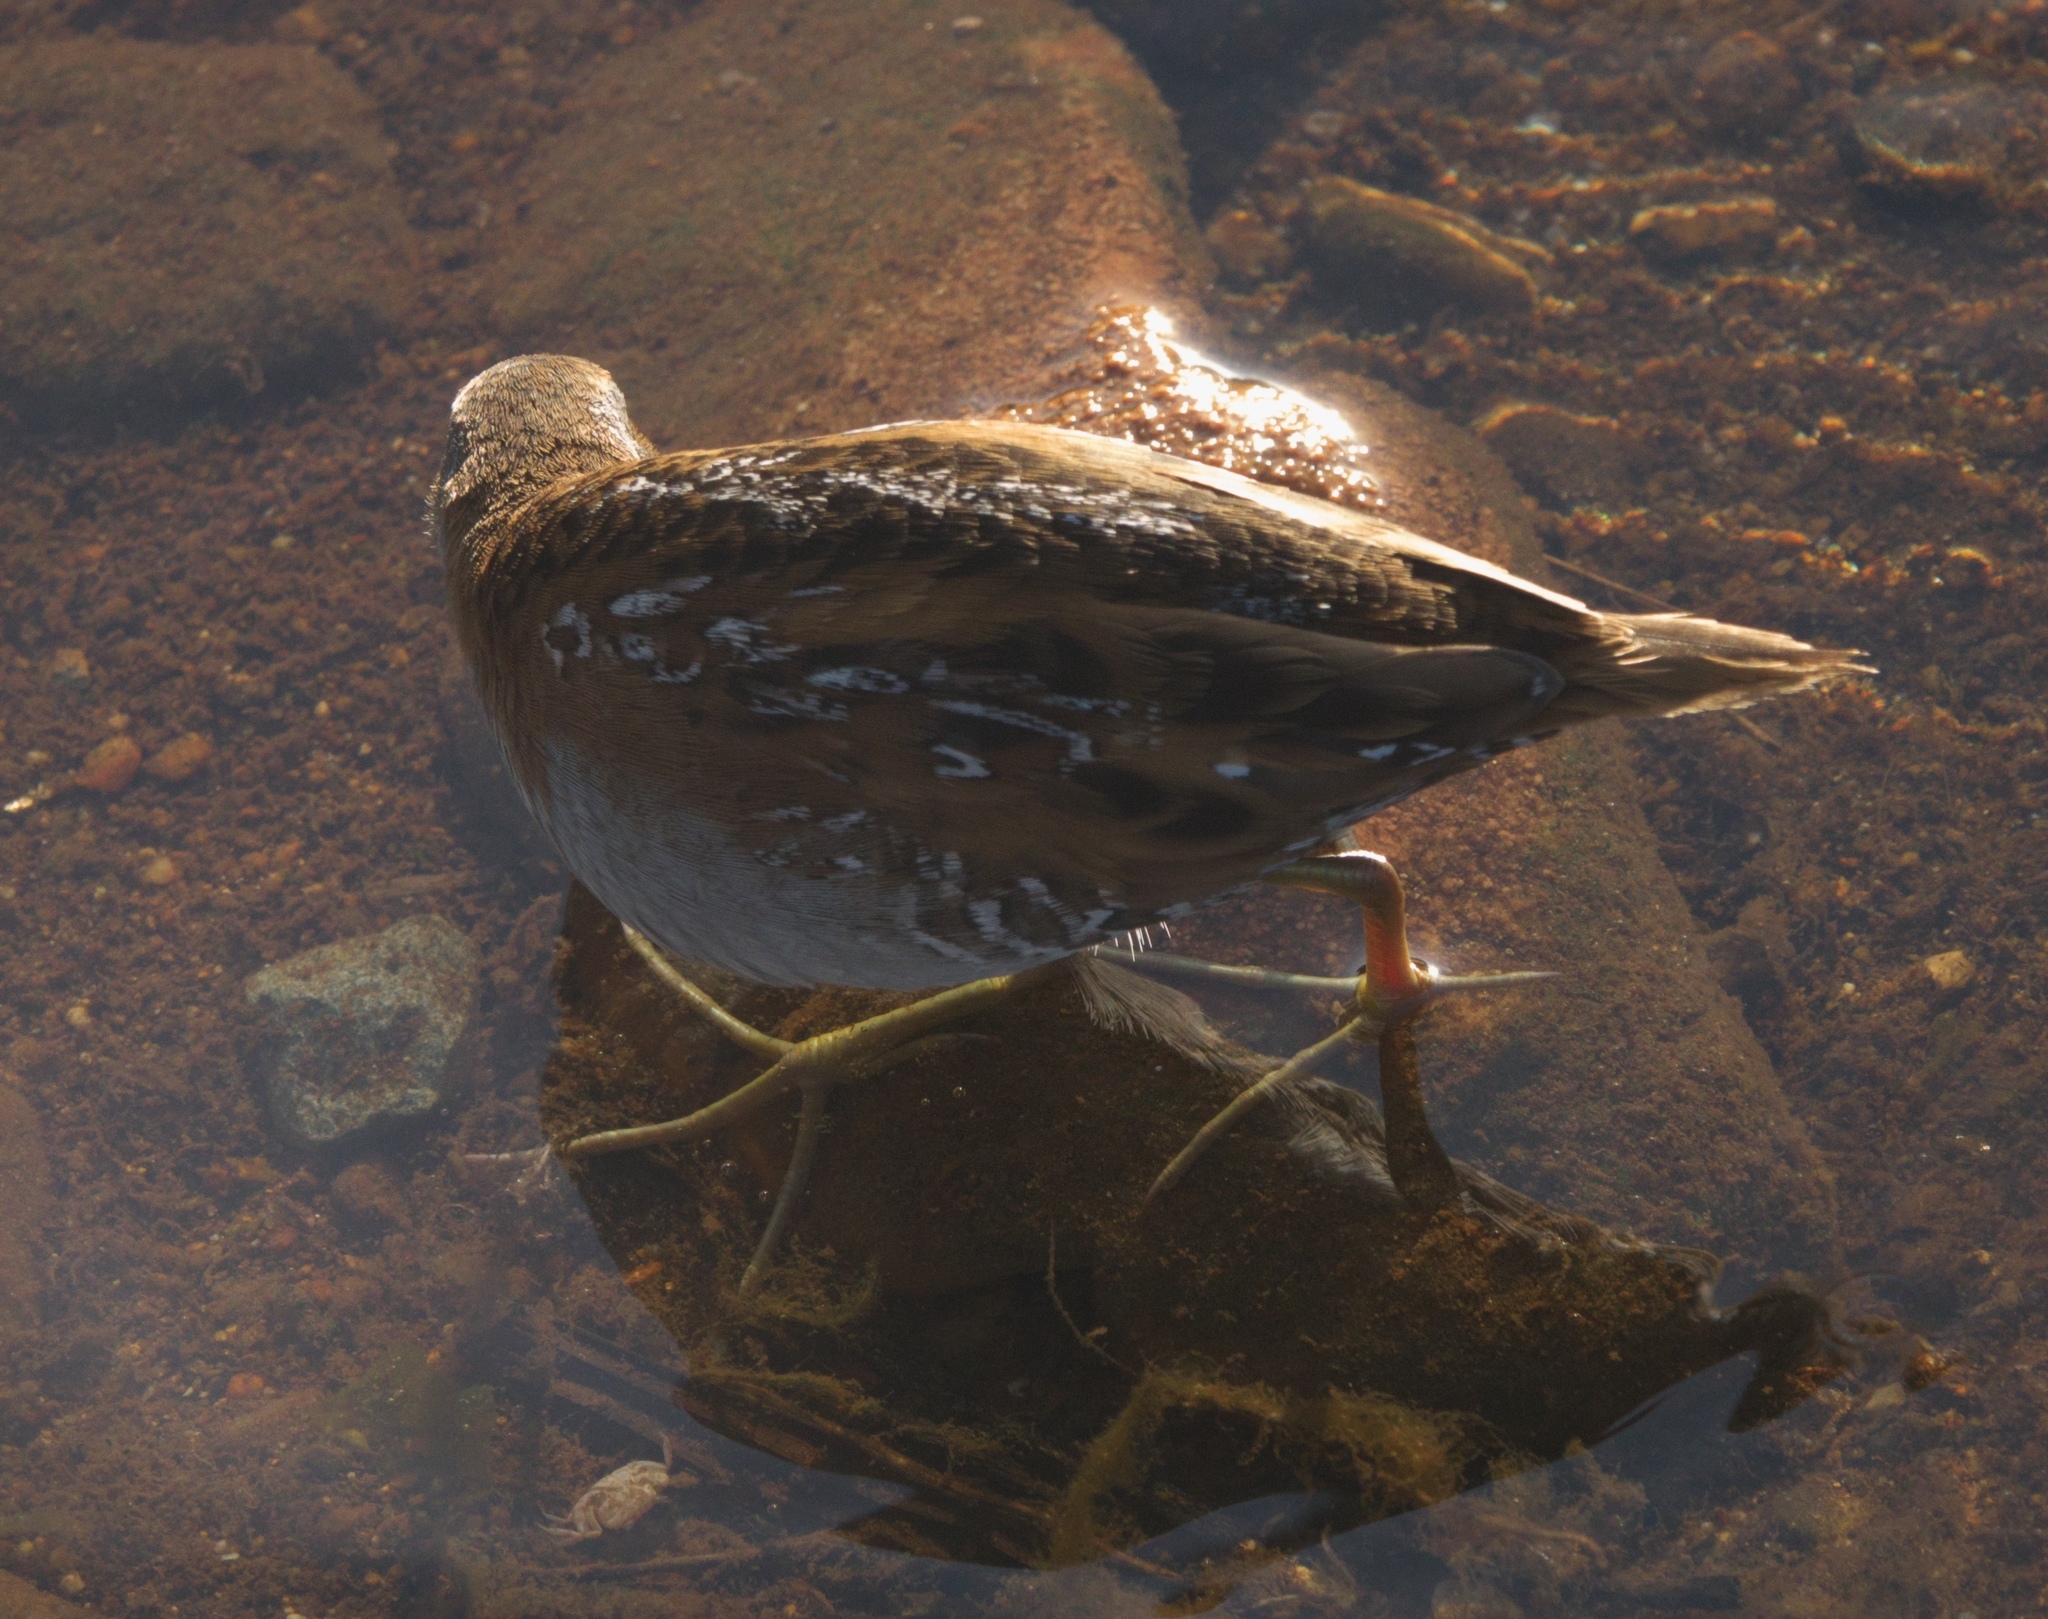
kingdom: Animalia
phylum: Chordata
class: Aves
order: Gruiformes
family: Rallidae
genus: Porzana
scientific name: Porzana pusilla
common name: Baillon's crake
